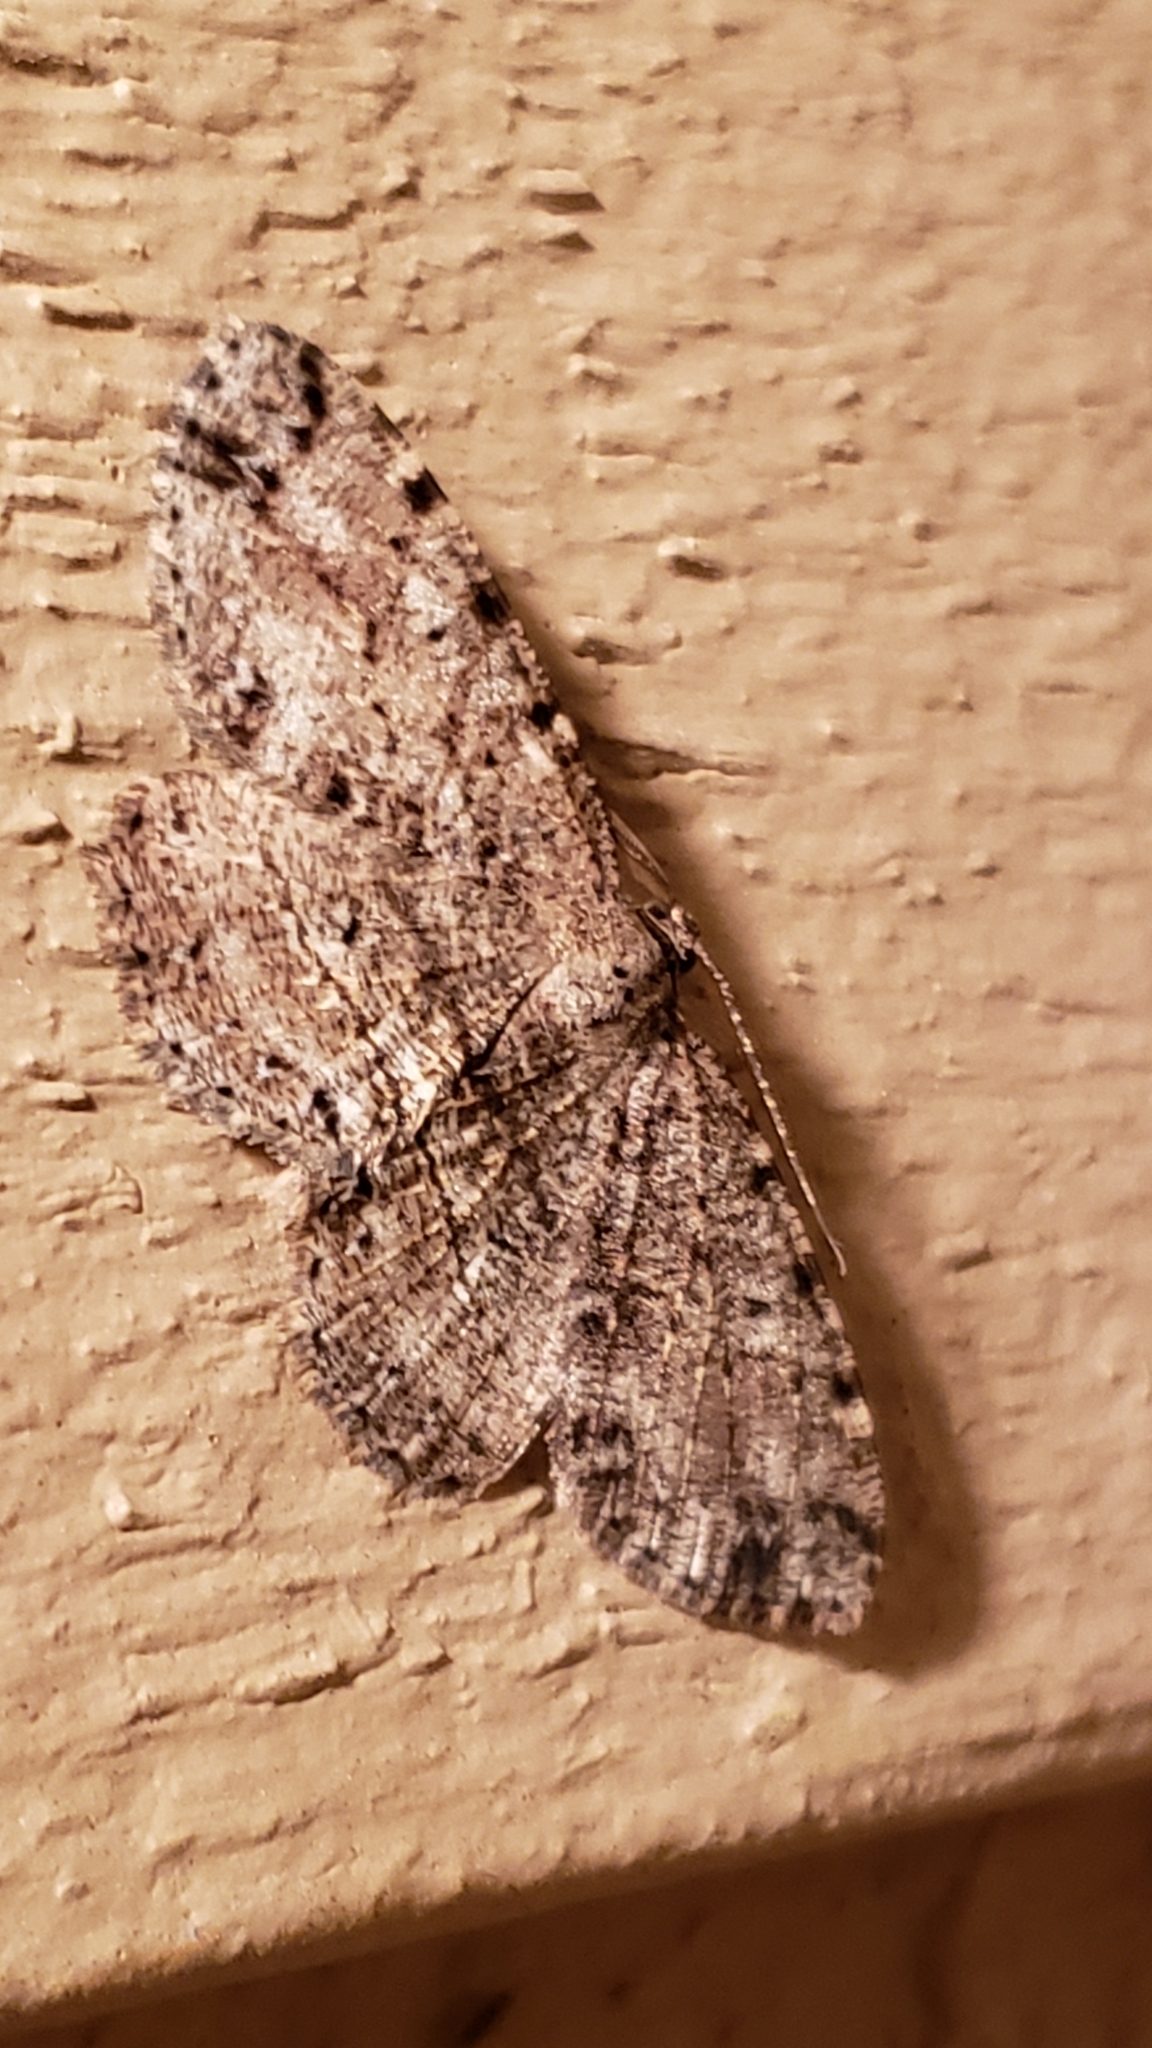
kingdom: Animalia
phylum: Arthropoda
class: Insecta
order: Lepidoptera
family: Geometridae
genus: Melanolophia
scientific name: Melanolophia canadaria
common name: Canadian melanolophia
